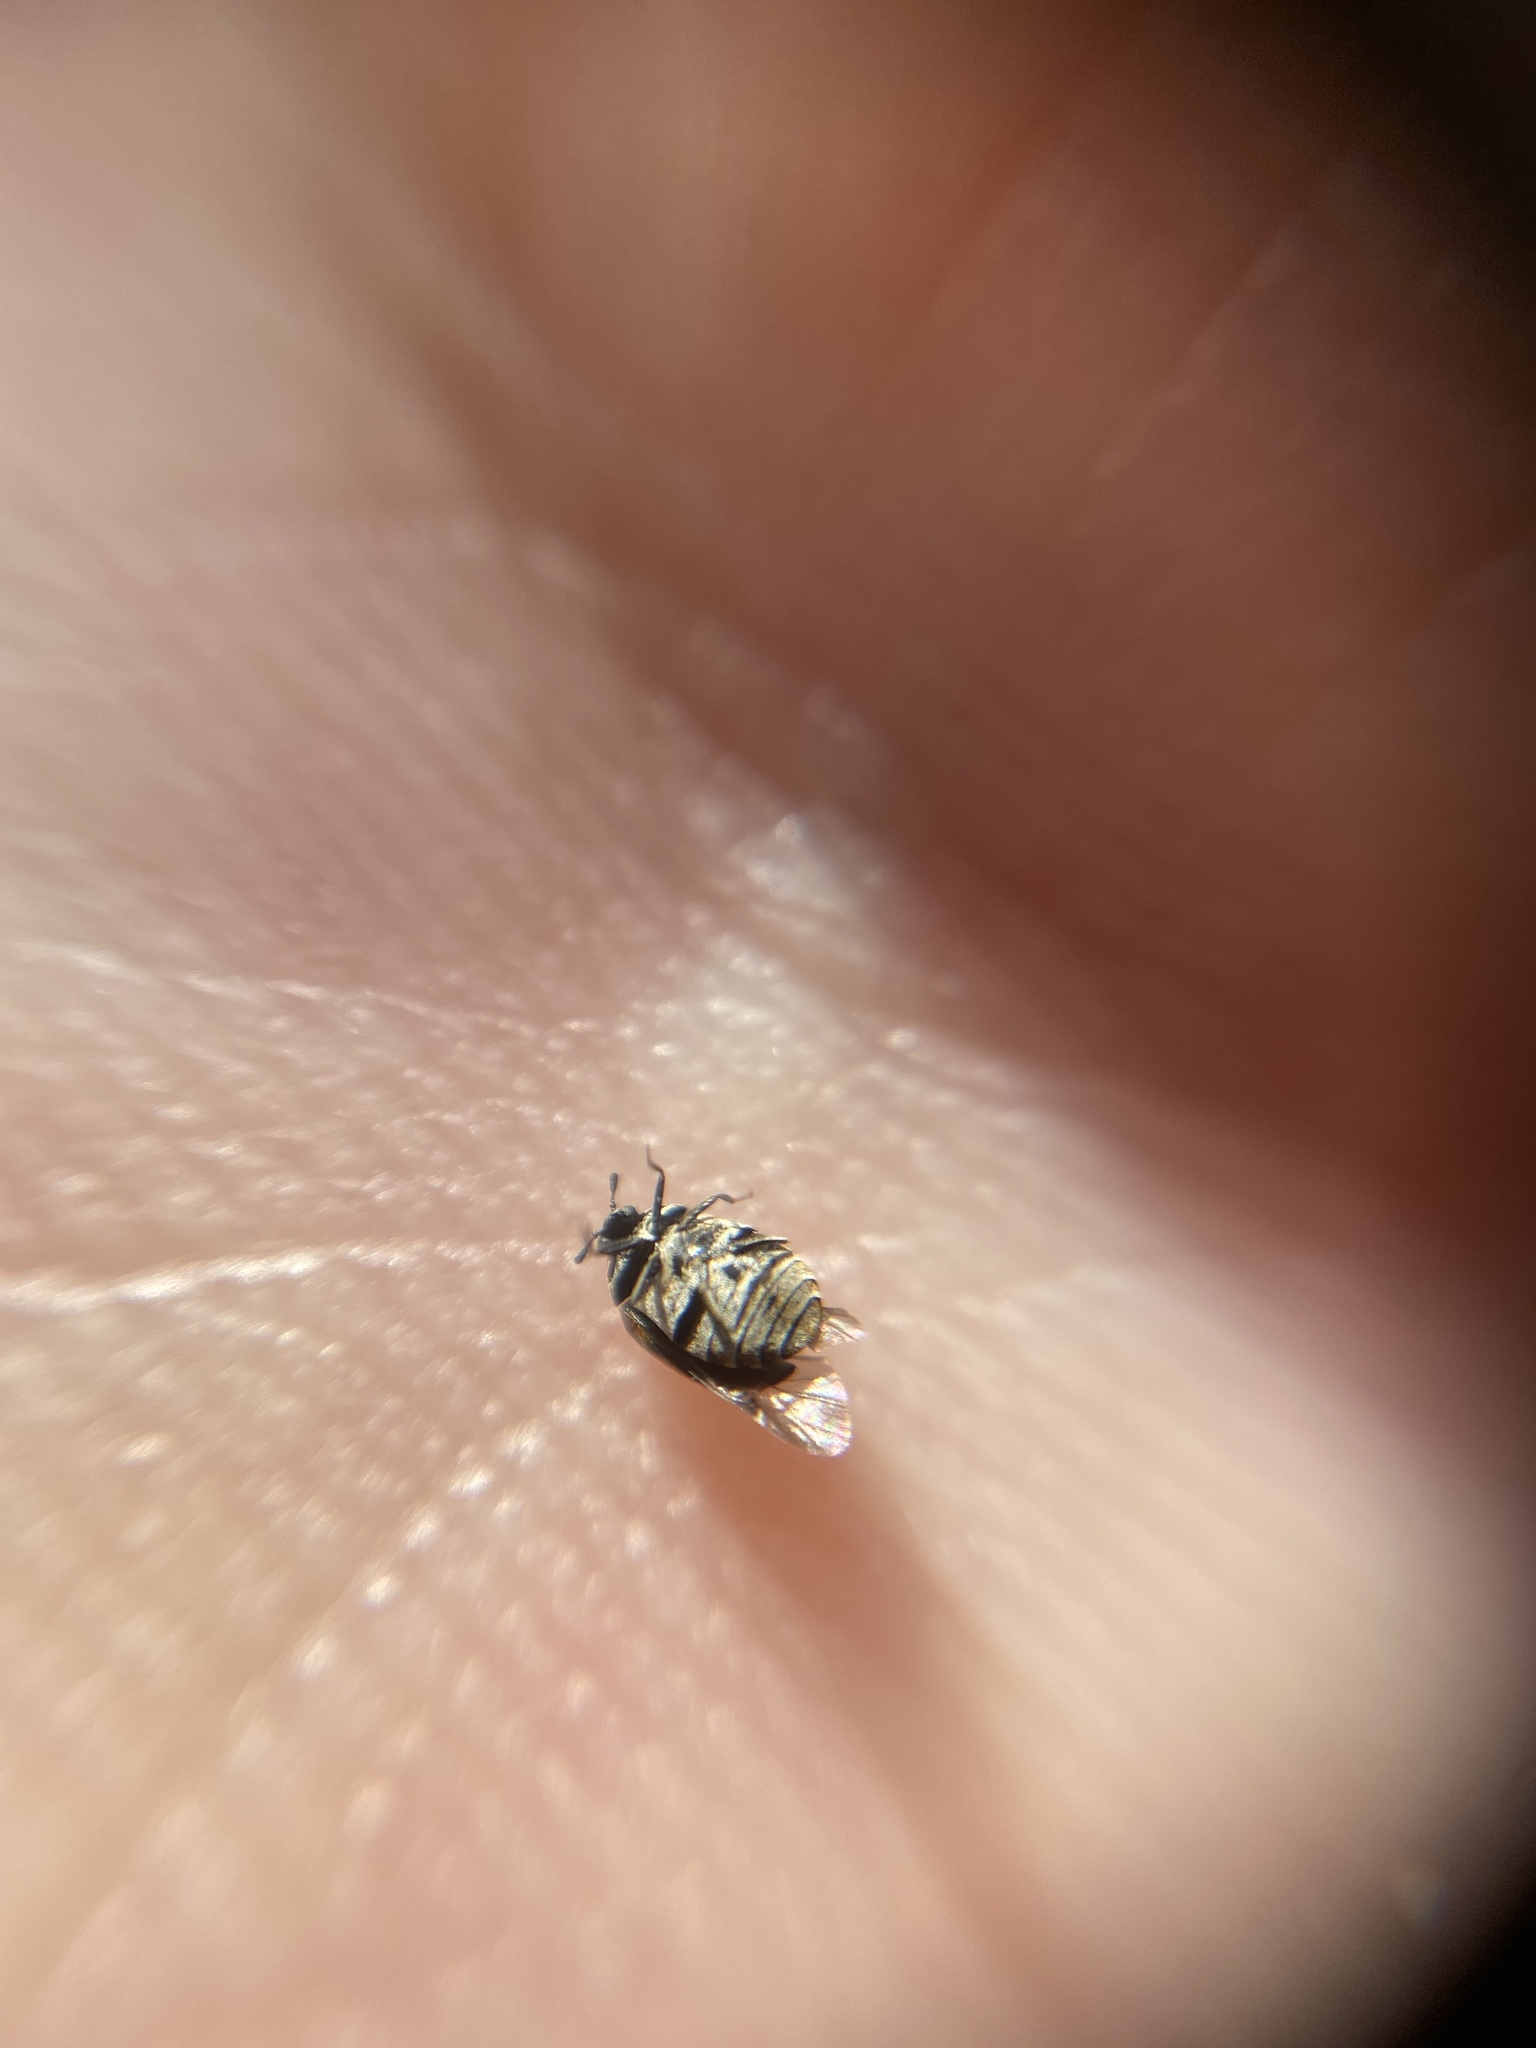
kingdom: Animalia
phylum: Arthropoda
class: Insecta
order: Coleoptera
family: Dermestidae
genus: Anthrenus
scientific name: Anthrenus verbasci
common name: Varied carpet beetle
